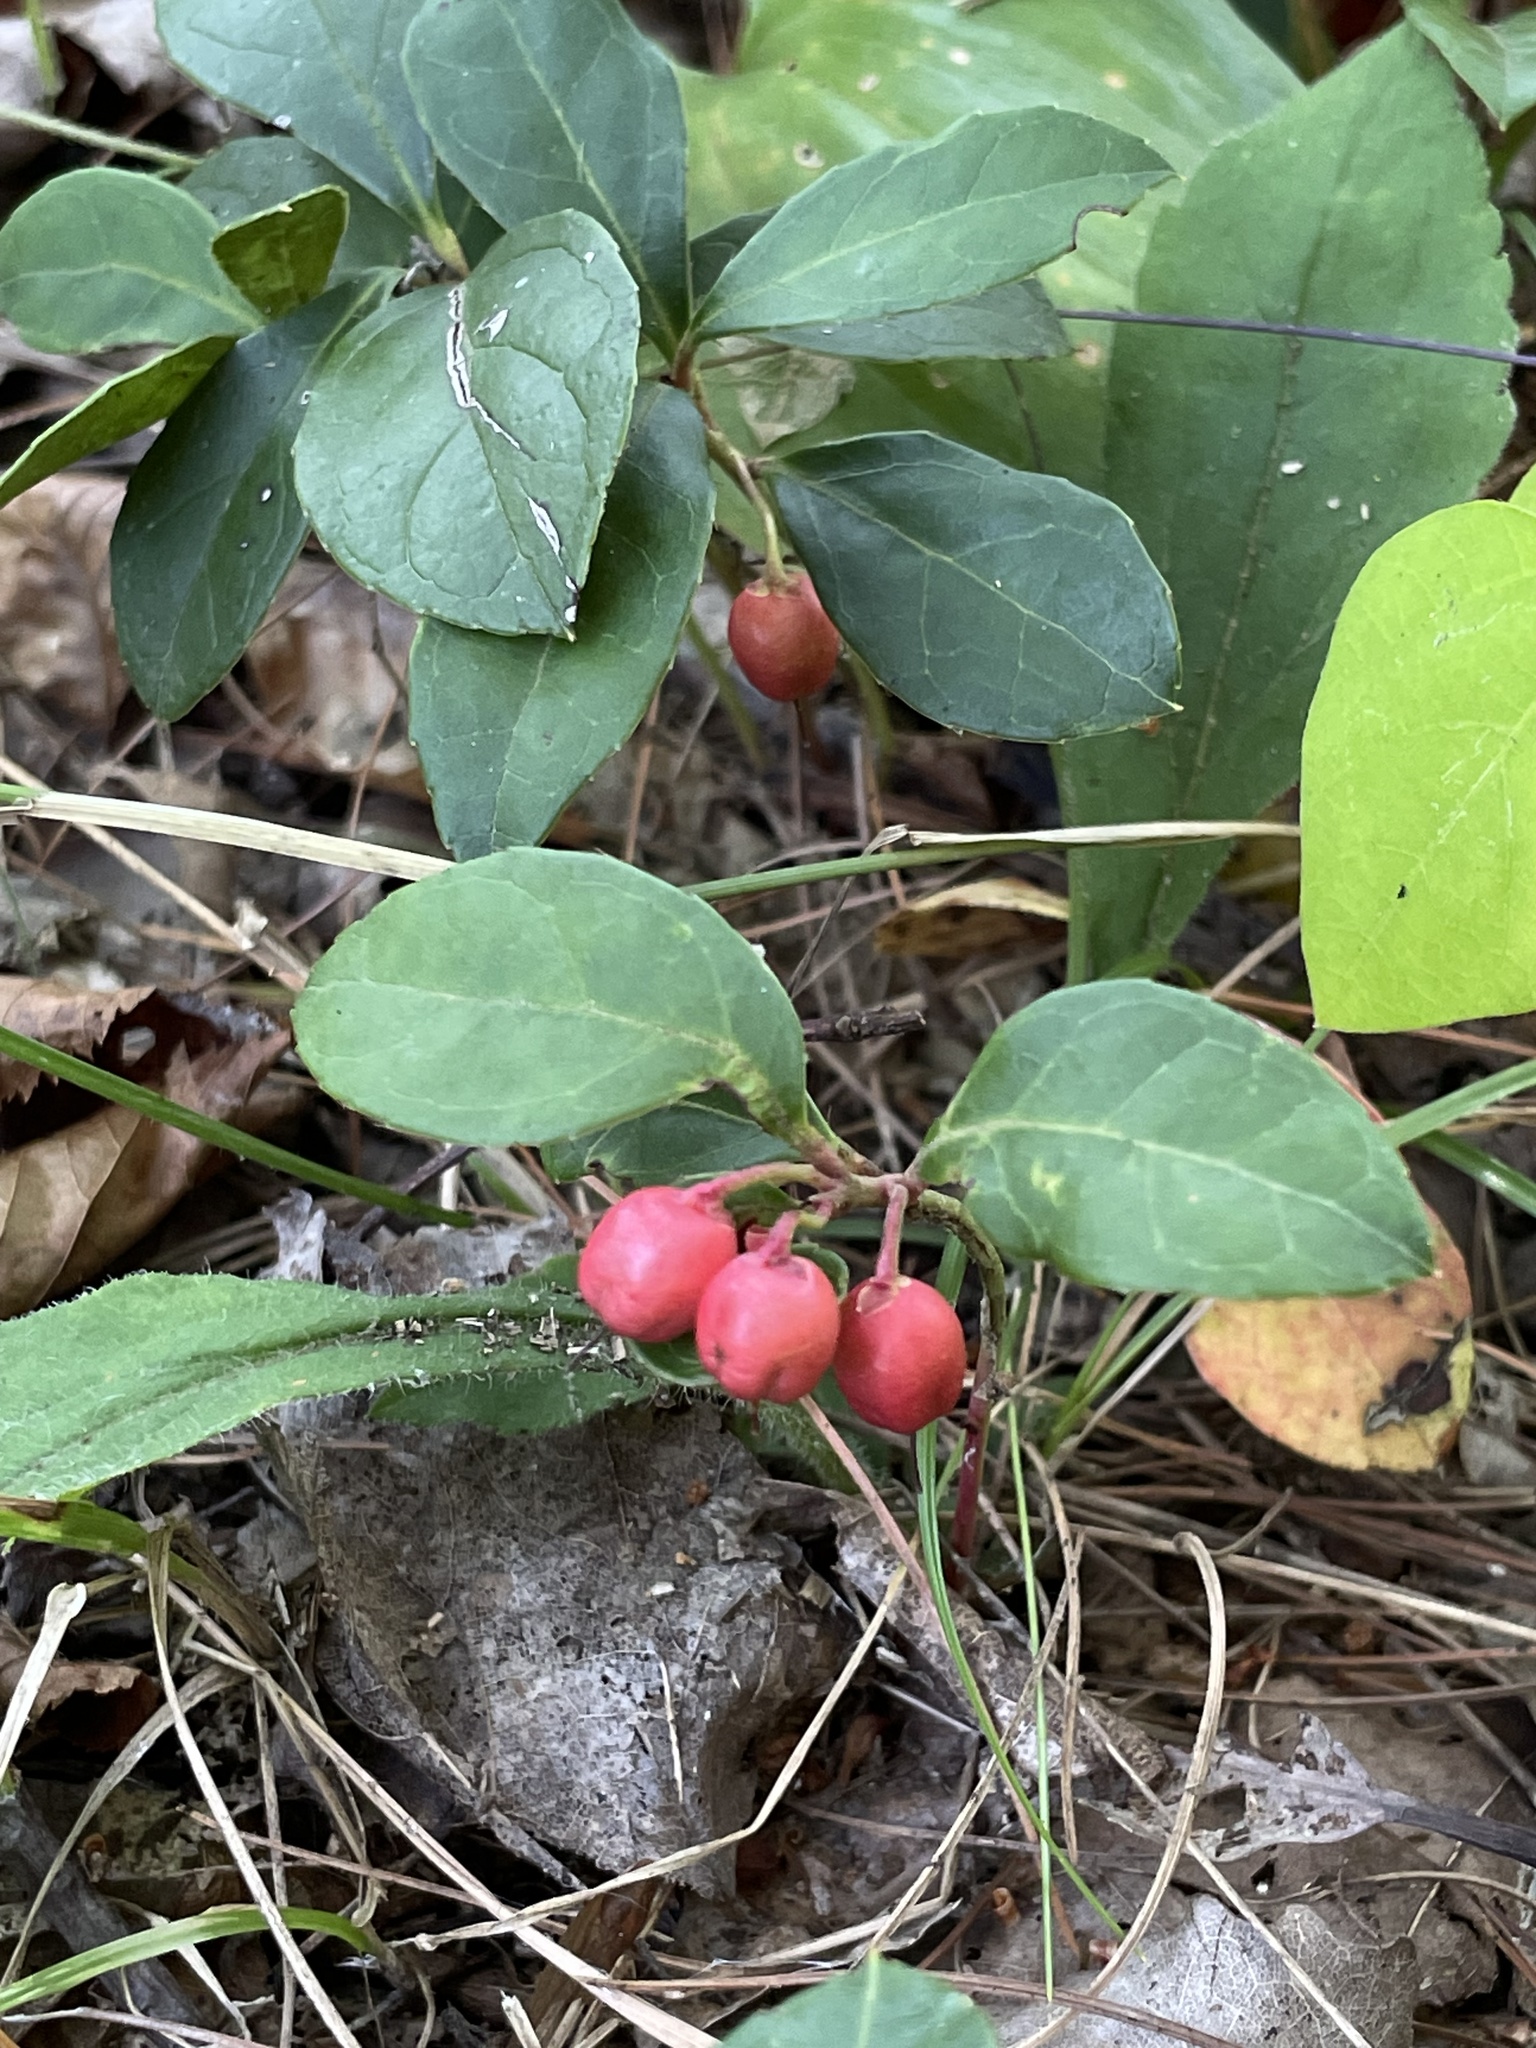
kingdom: Plantae
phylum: Tracheophyta
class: Magnoliopsida
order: Ericales
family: Ericaceae
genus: Gaultheria
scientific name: Gaultheria procumbens
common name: Checkerberry
